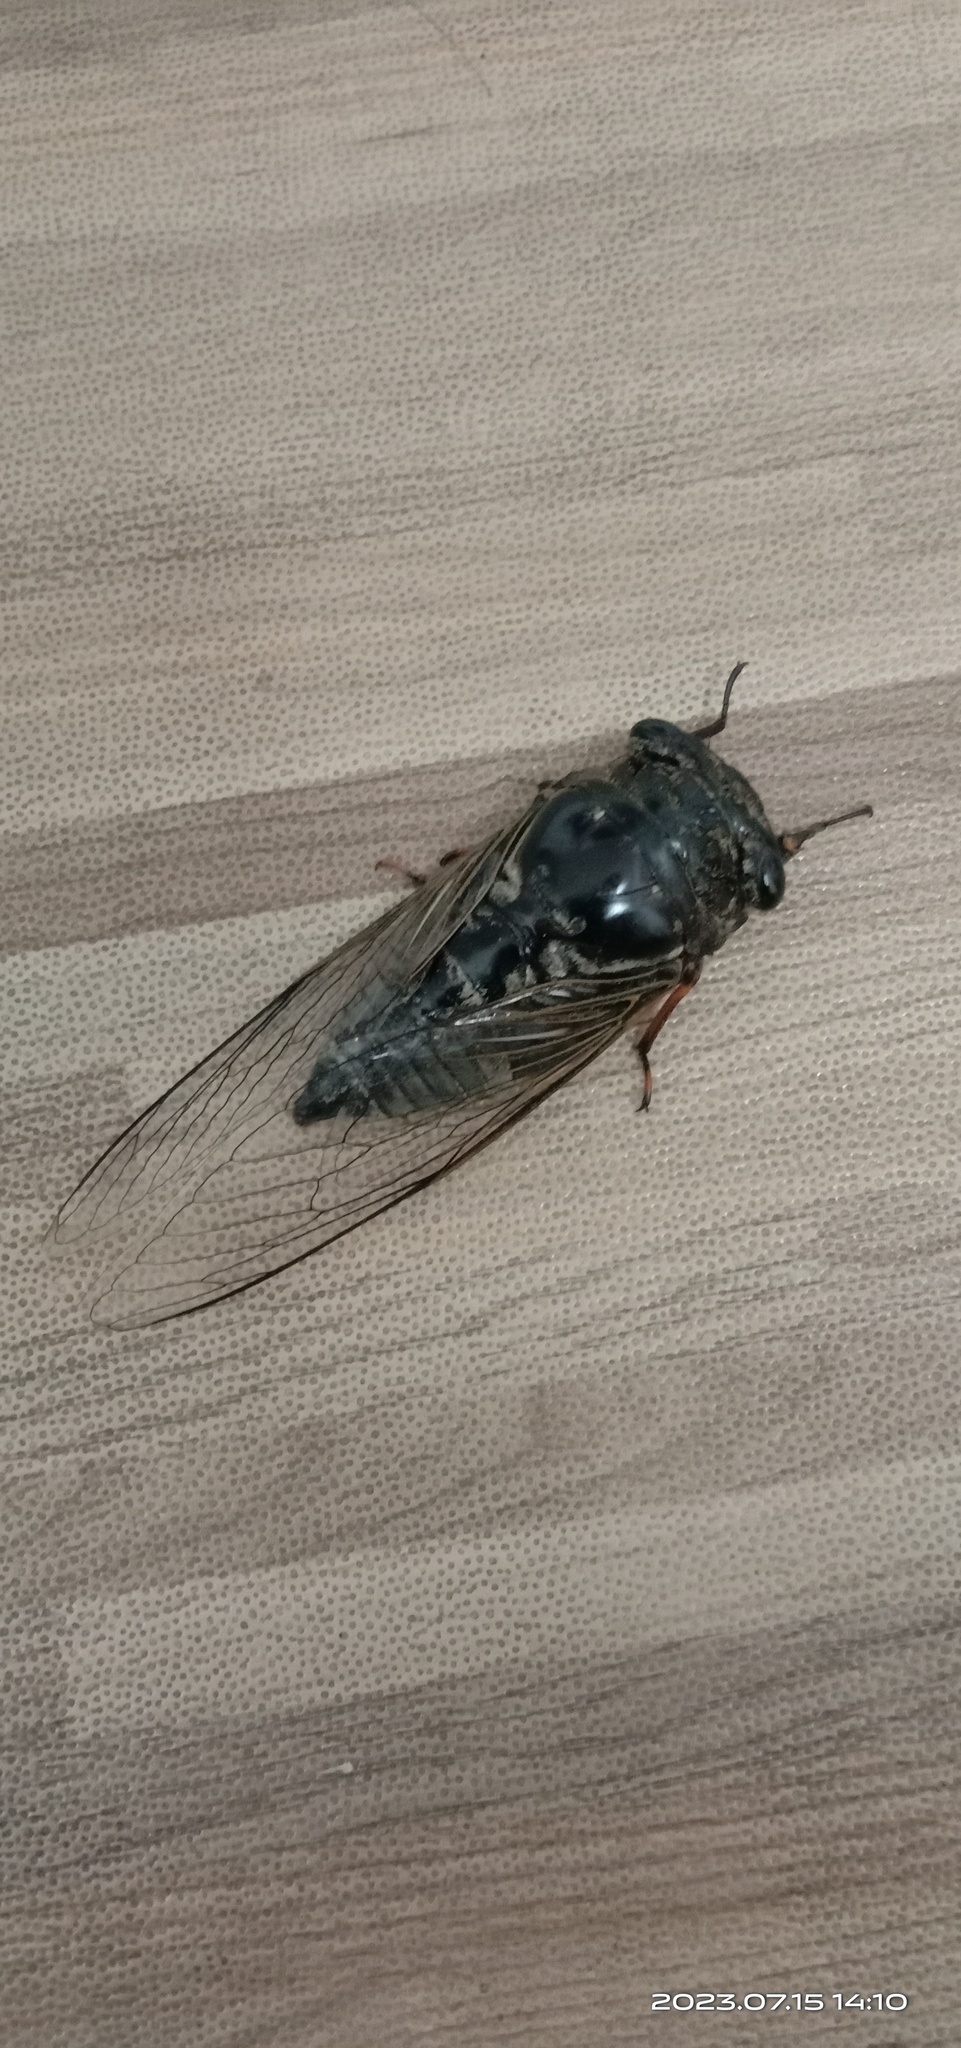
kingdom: Animalia
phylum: Arthropoda
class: Insecta
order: Hemiptera
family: Cicadidae
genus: Cryptotympana
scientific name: Cryptotympana takasagona
